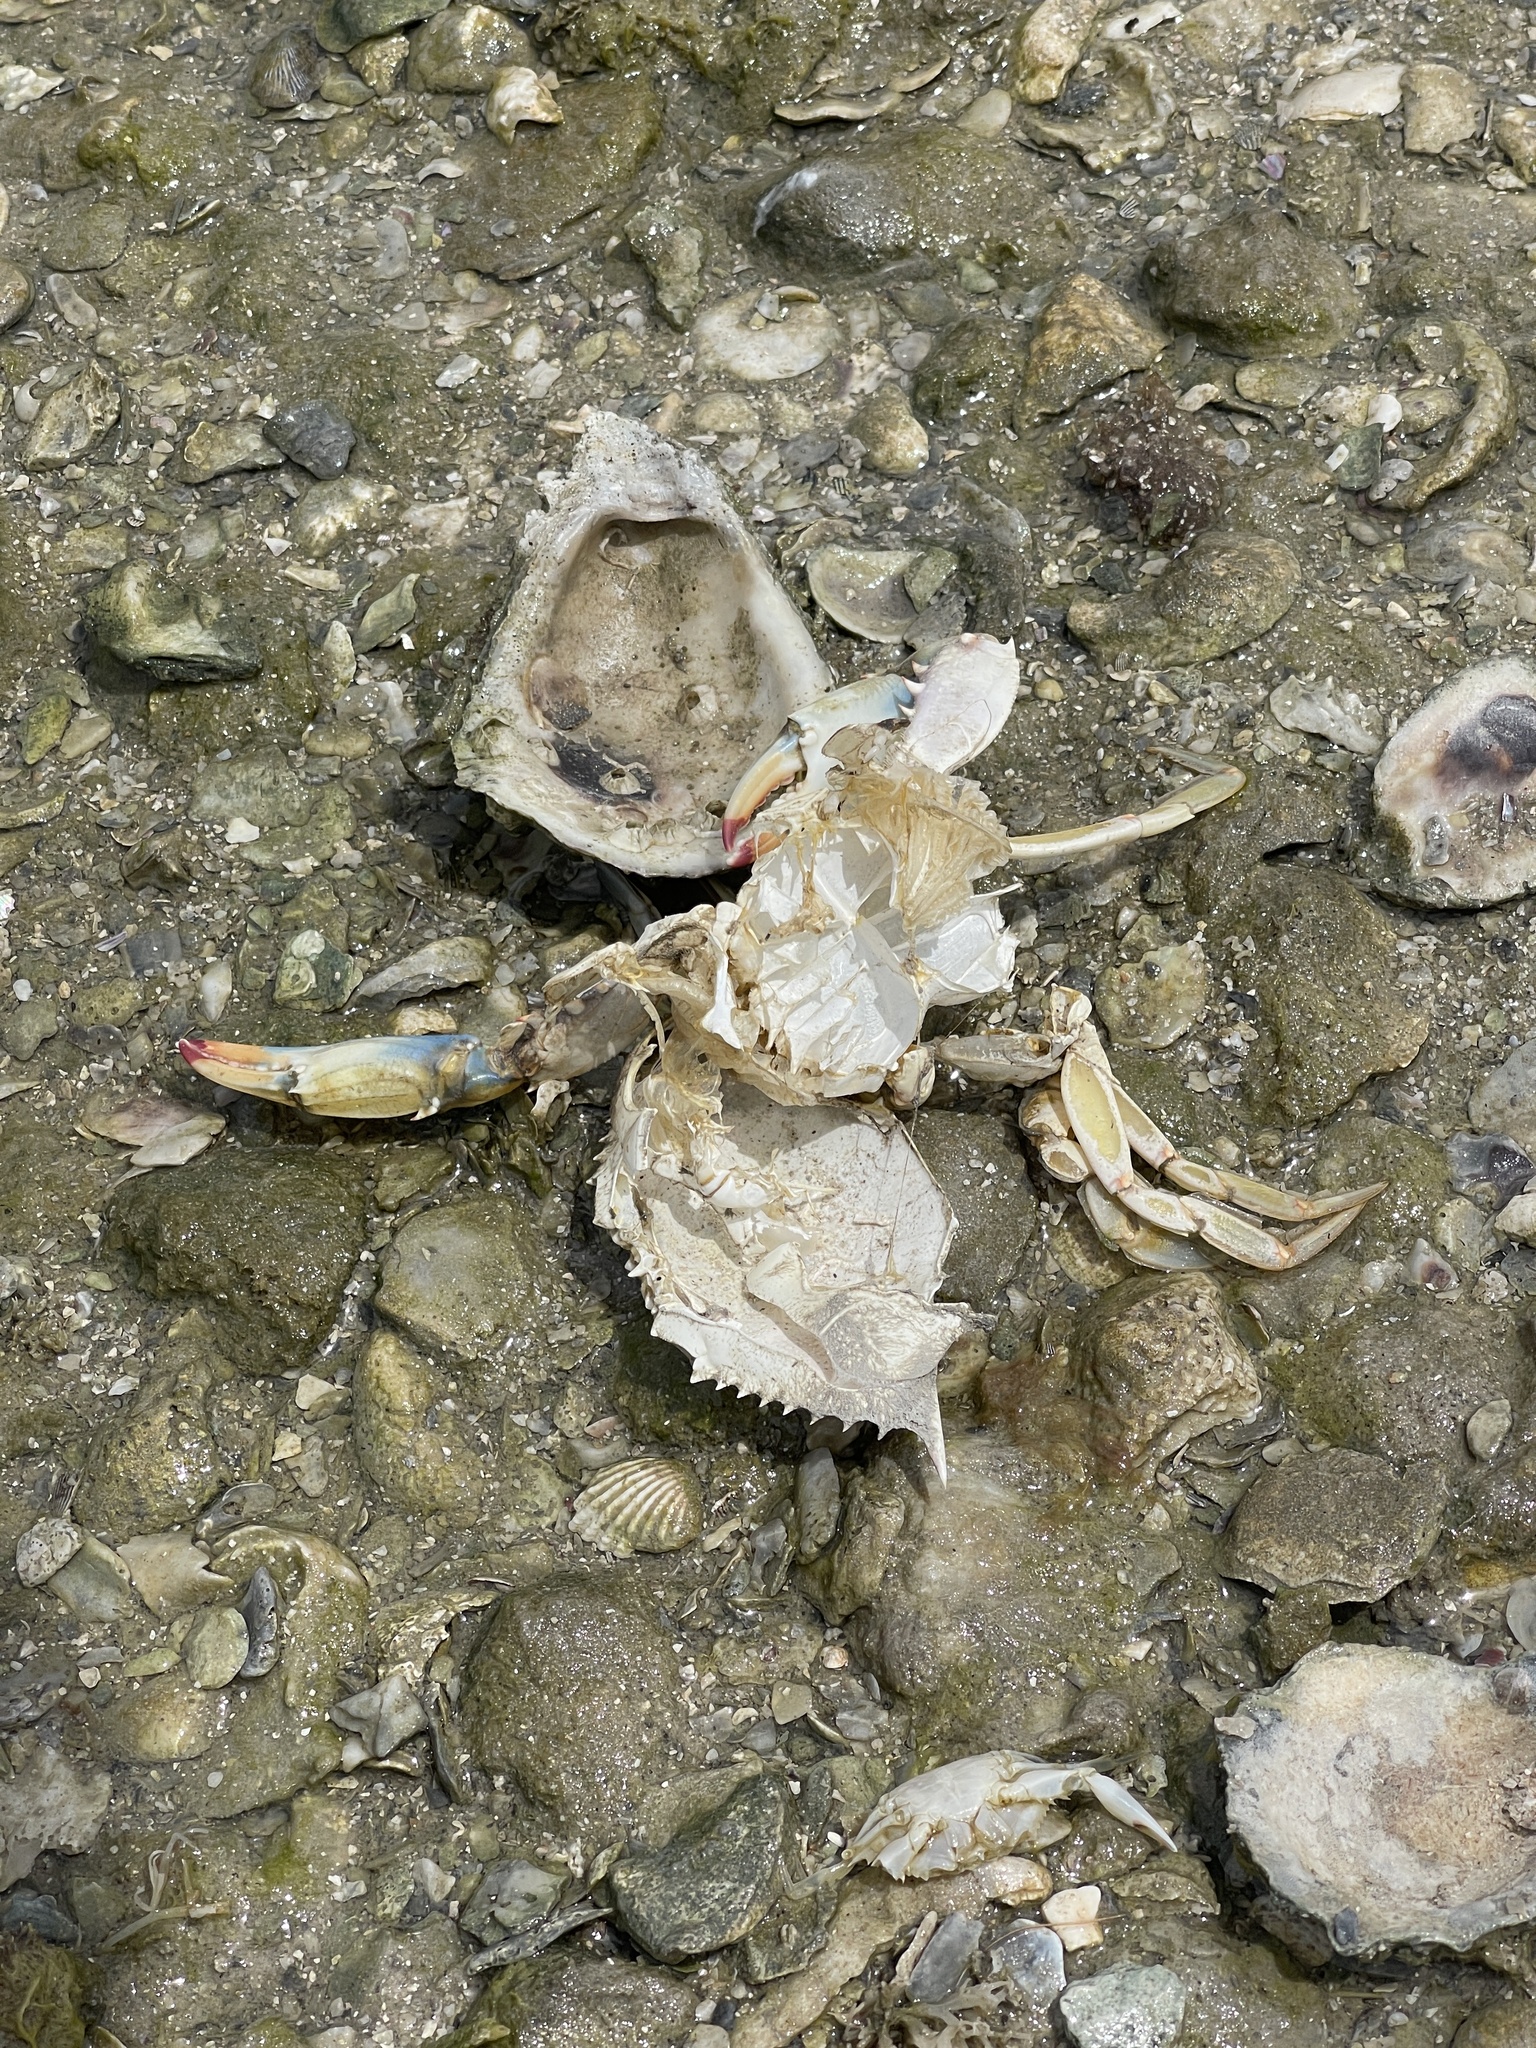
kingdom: Animalia
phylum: Arthropoda
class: Malacostraca
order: Decapoda
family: Portunidae
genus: Callinectes
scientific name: Callinectes sapidus
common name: Blue crab
